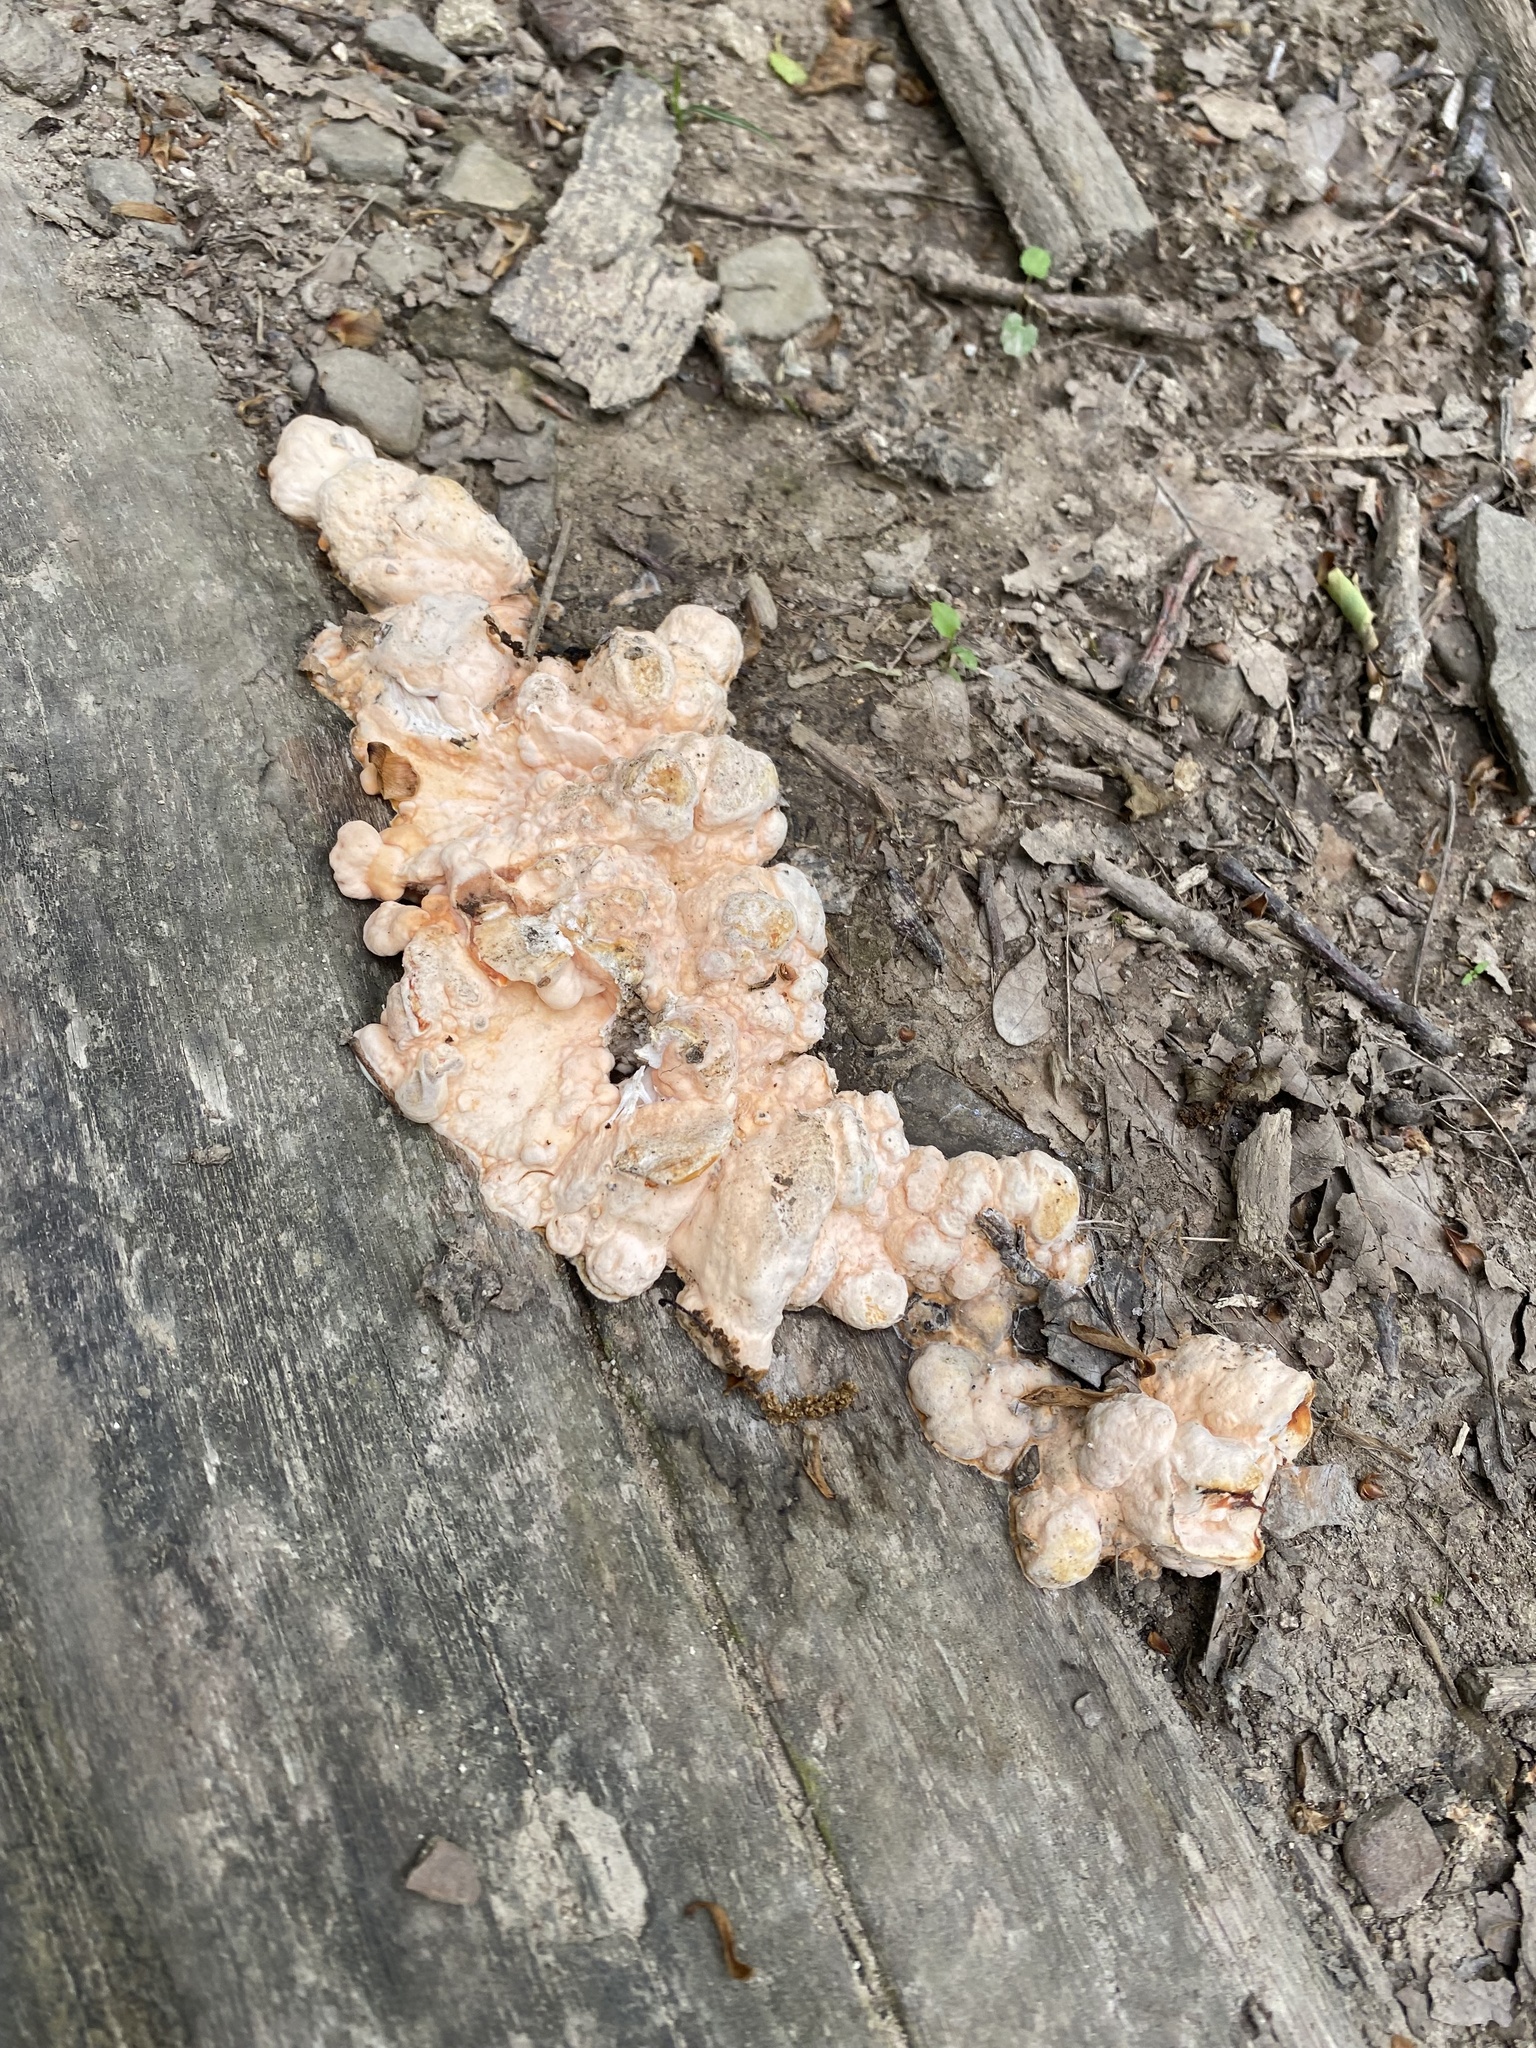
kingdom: Fungi
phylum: Basidiomycota
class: Agaricomycetes
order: Polyporales
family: Laetiporaceae
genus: Laetiporus
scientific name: Laetiporus sulphureus
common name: Chicken of the woods
